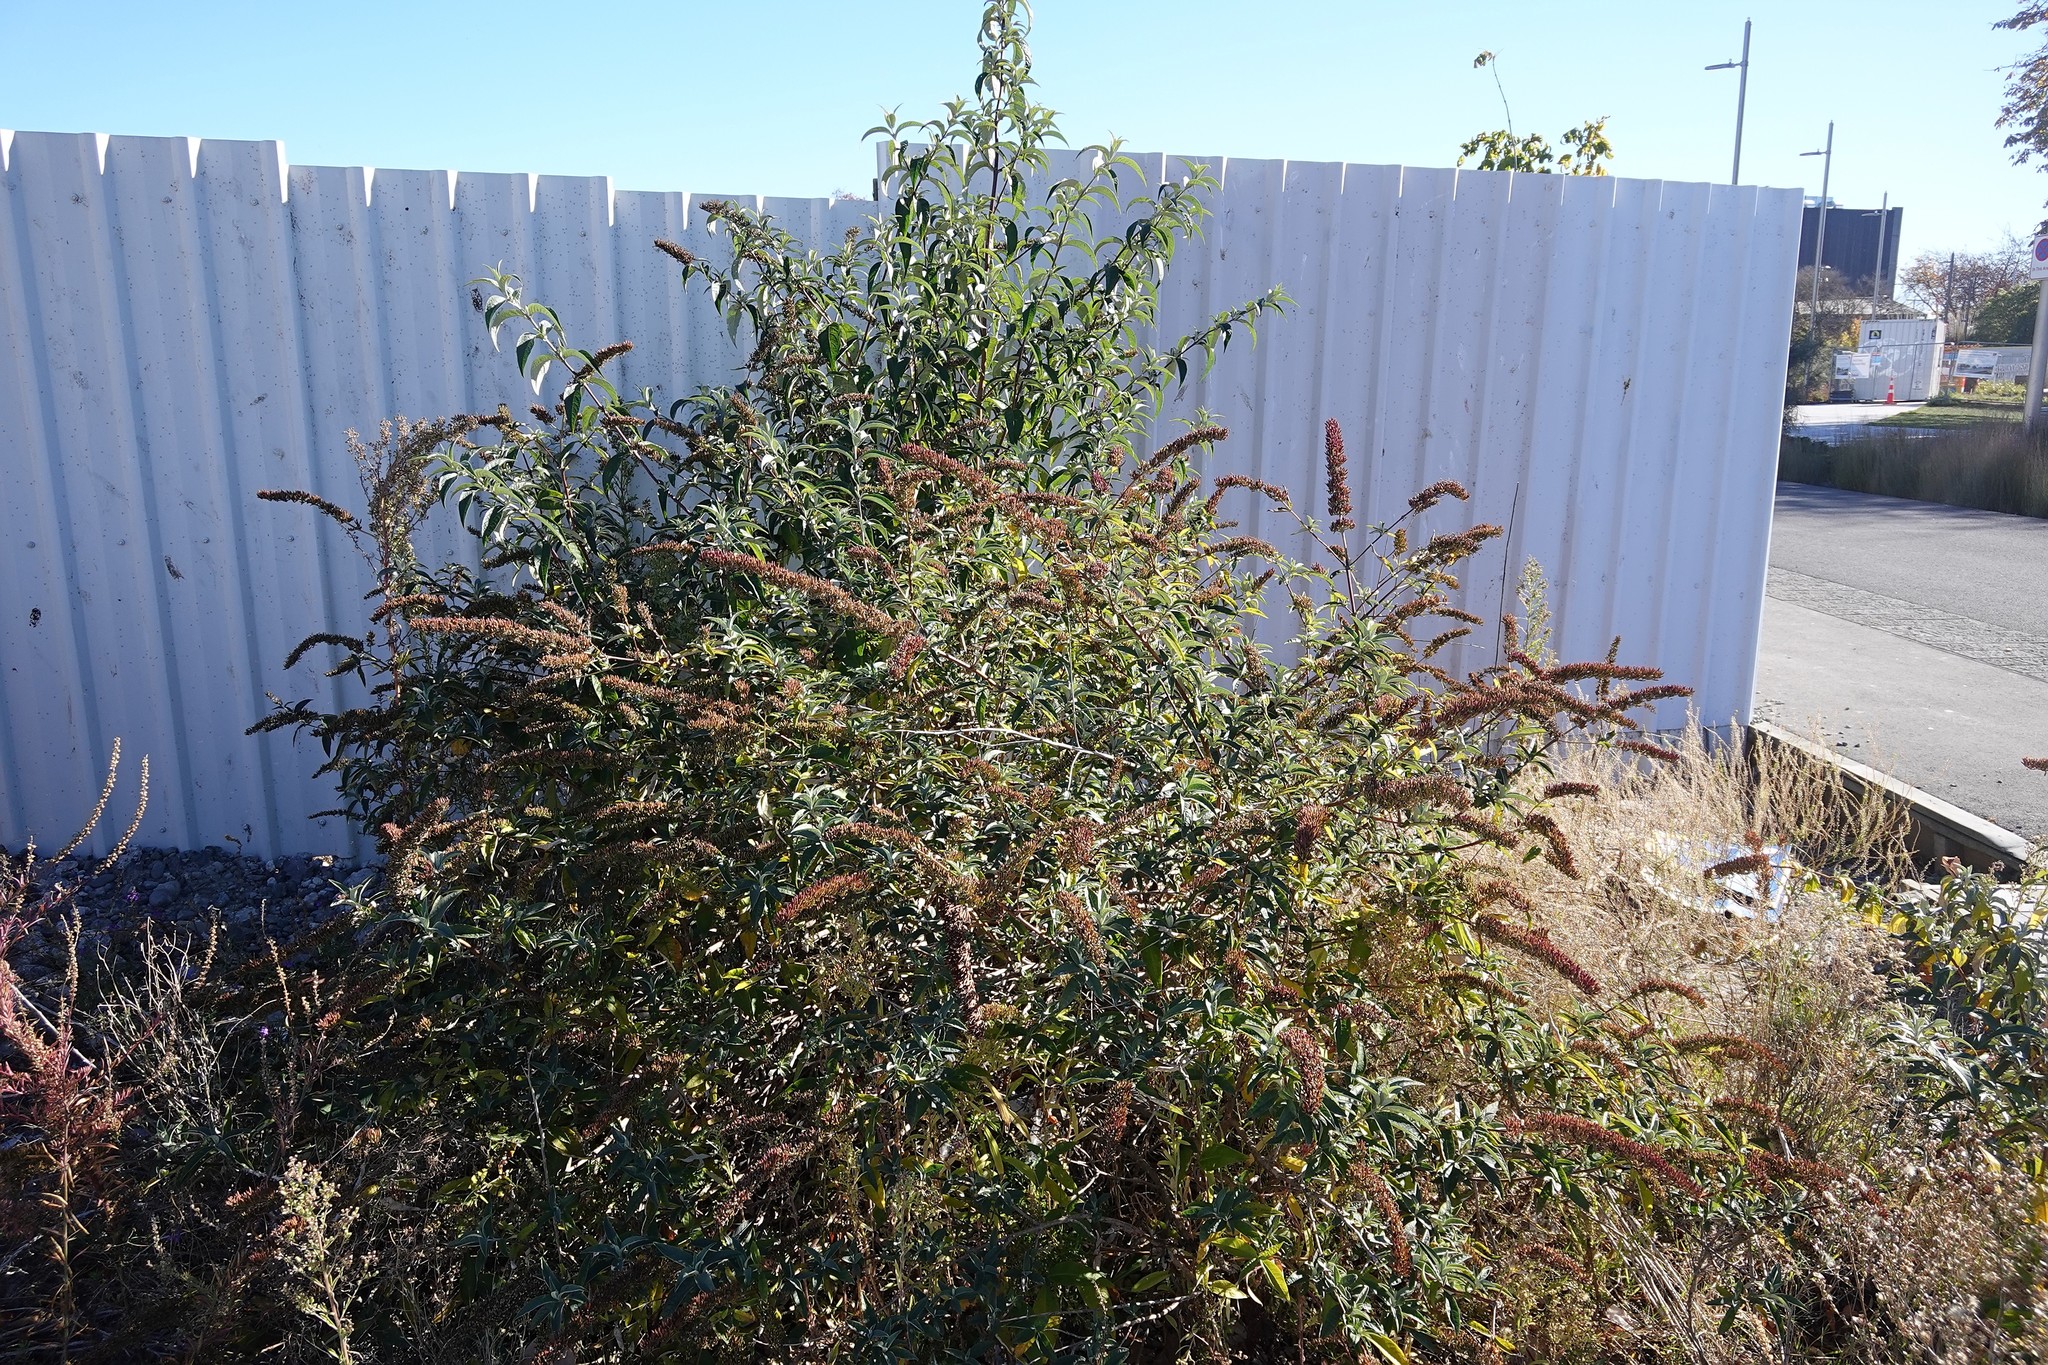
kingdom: Plantae
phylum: Tracheophyta
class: Magnoliopsida
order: Lamiales
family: Scrophulariaceae
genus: Buddleja
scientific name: Buddleja davidii
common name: Butterfly-bush
